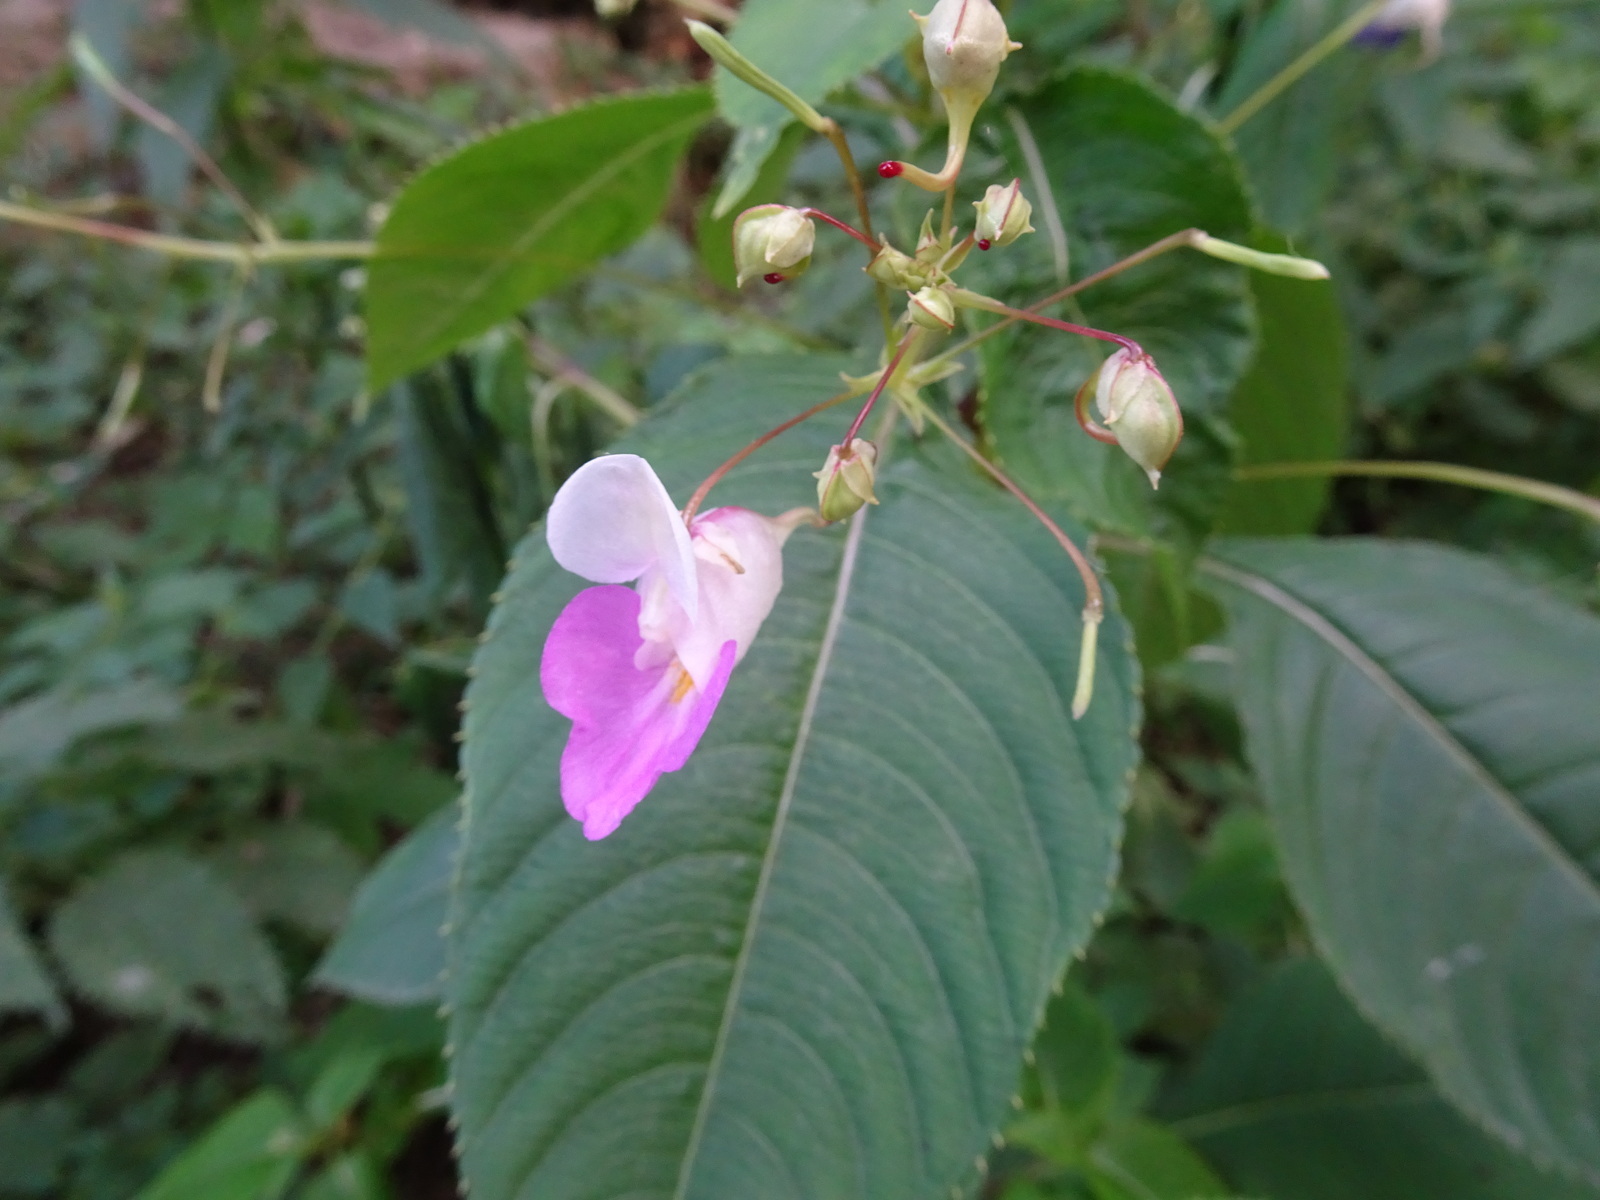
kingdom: Plantae
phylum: Tracheophyta
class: Magnoliopsida
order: Ericales
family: Balsaminaceae
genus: Impatiens
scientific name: Impatiens balfourii
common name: Balfour's touch-me-not
